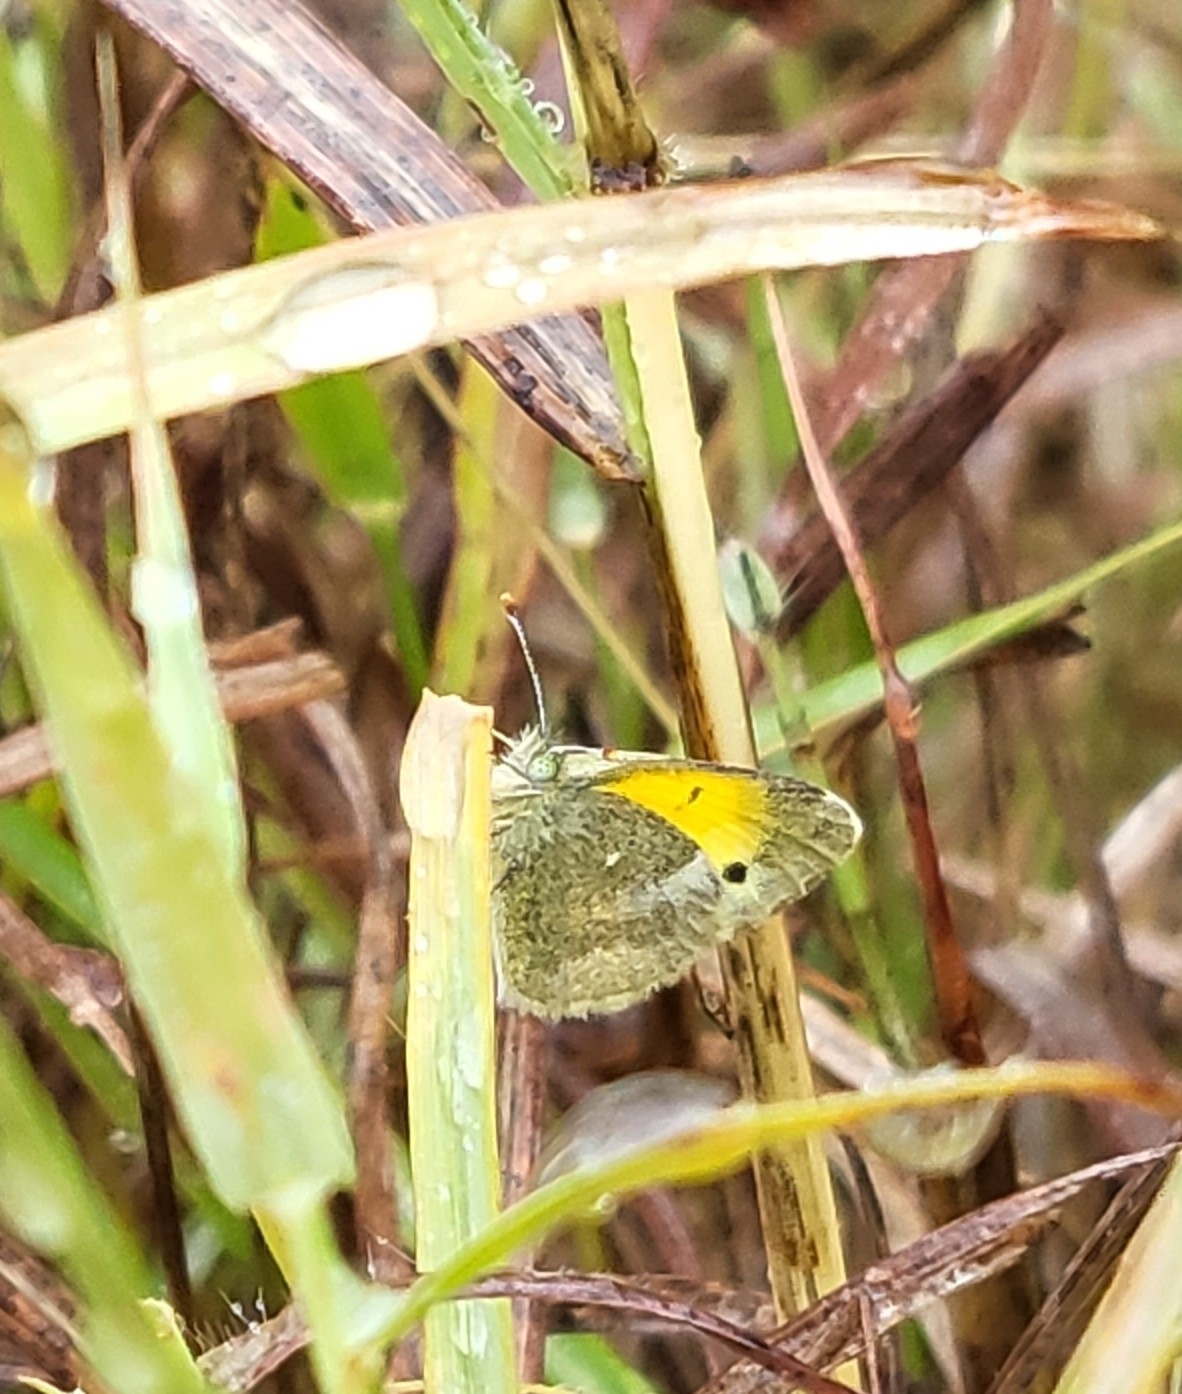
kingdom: Animalia
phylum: Arthropoda
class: Insecta
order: Lepidoptera
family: Pieridae
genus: Nathalis
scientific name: Nathalis iole
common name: Dainty sulphur
